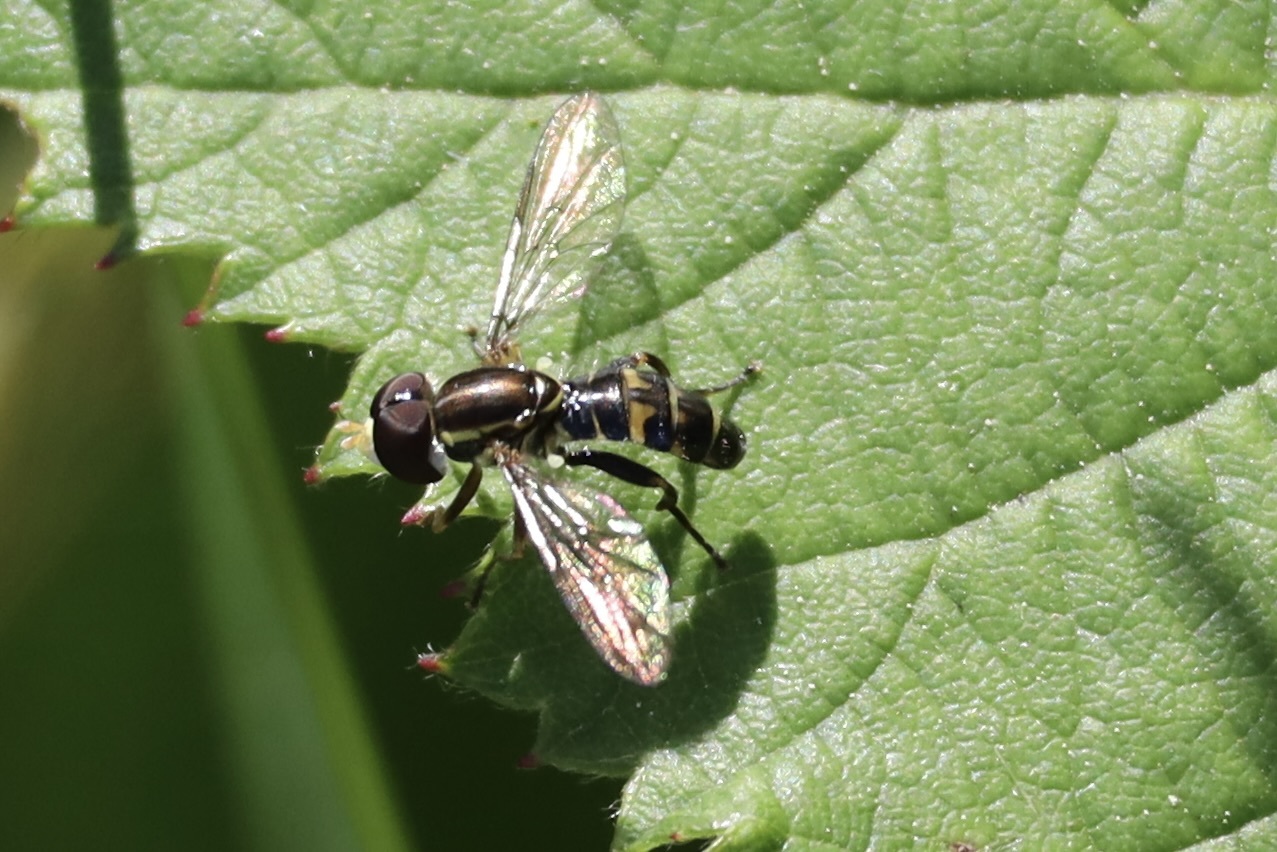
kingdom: Animalia
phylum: Arthropoda
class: Insecta
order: Diptera
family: Syrphidae
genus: Toxomerus
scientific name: Toxomerus occidentalis
